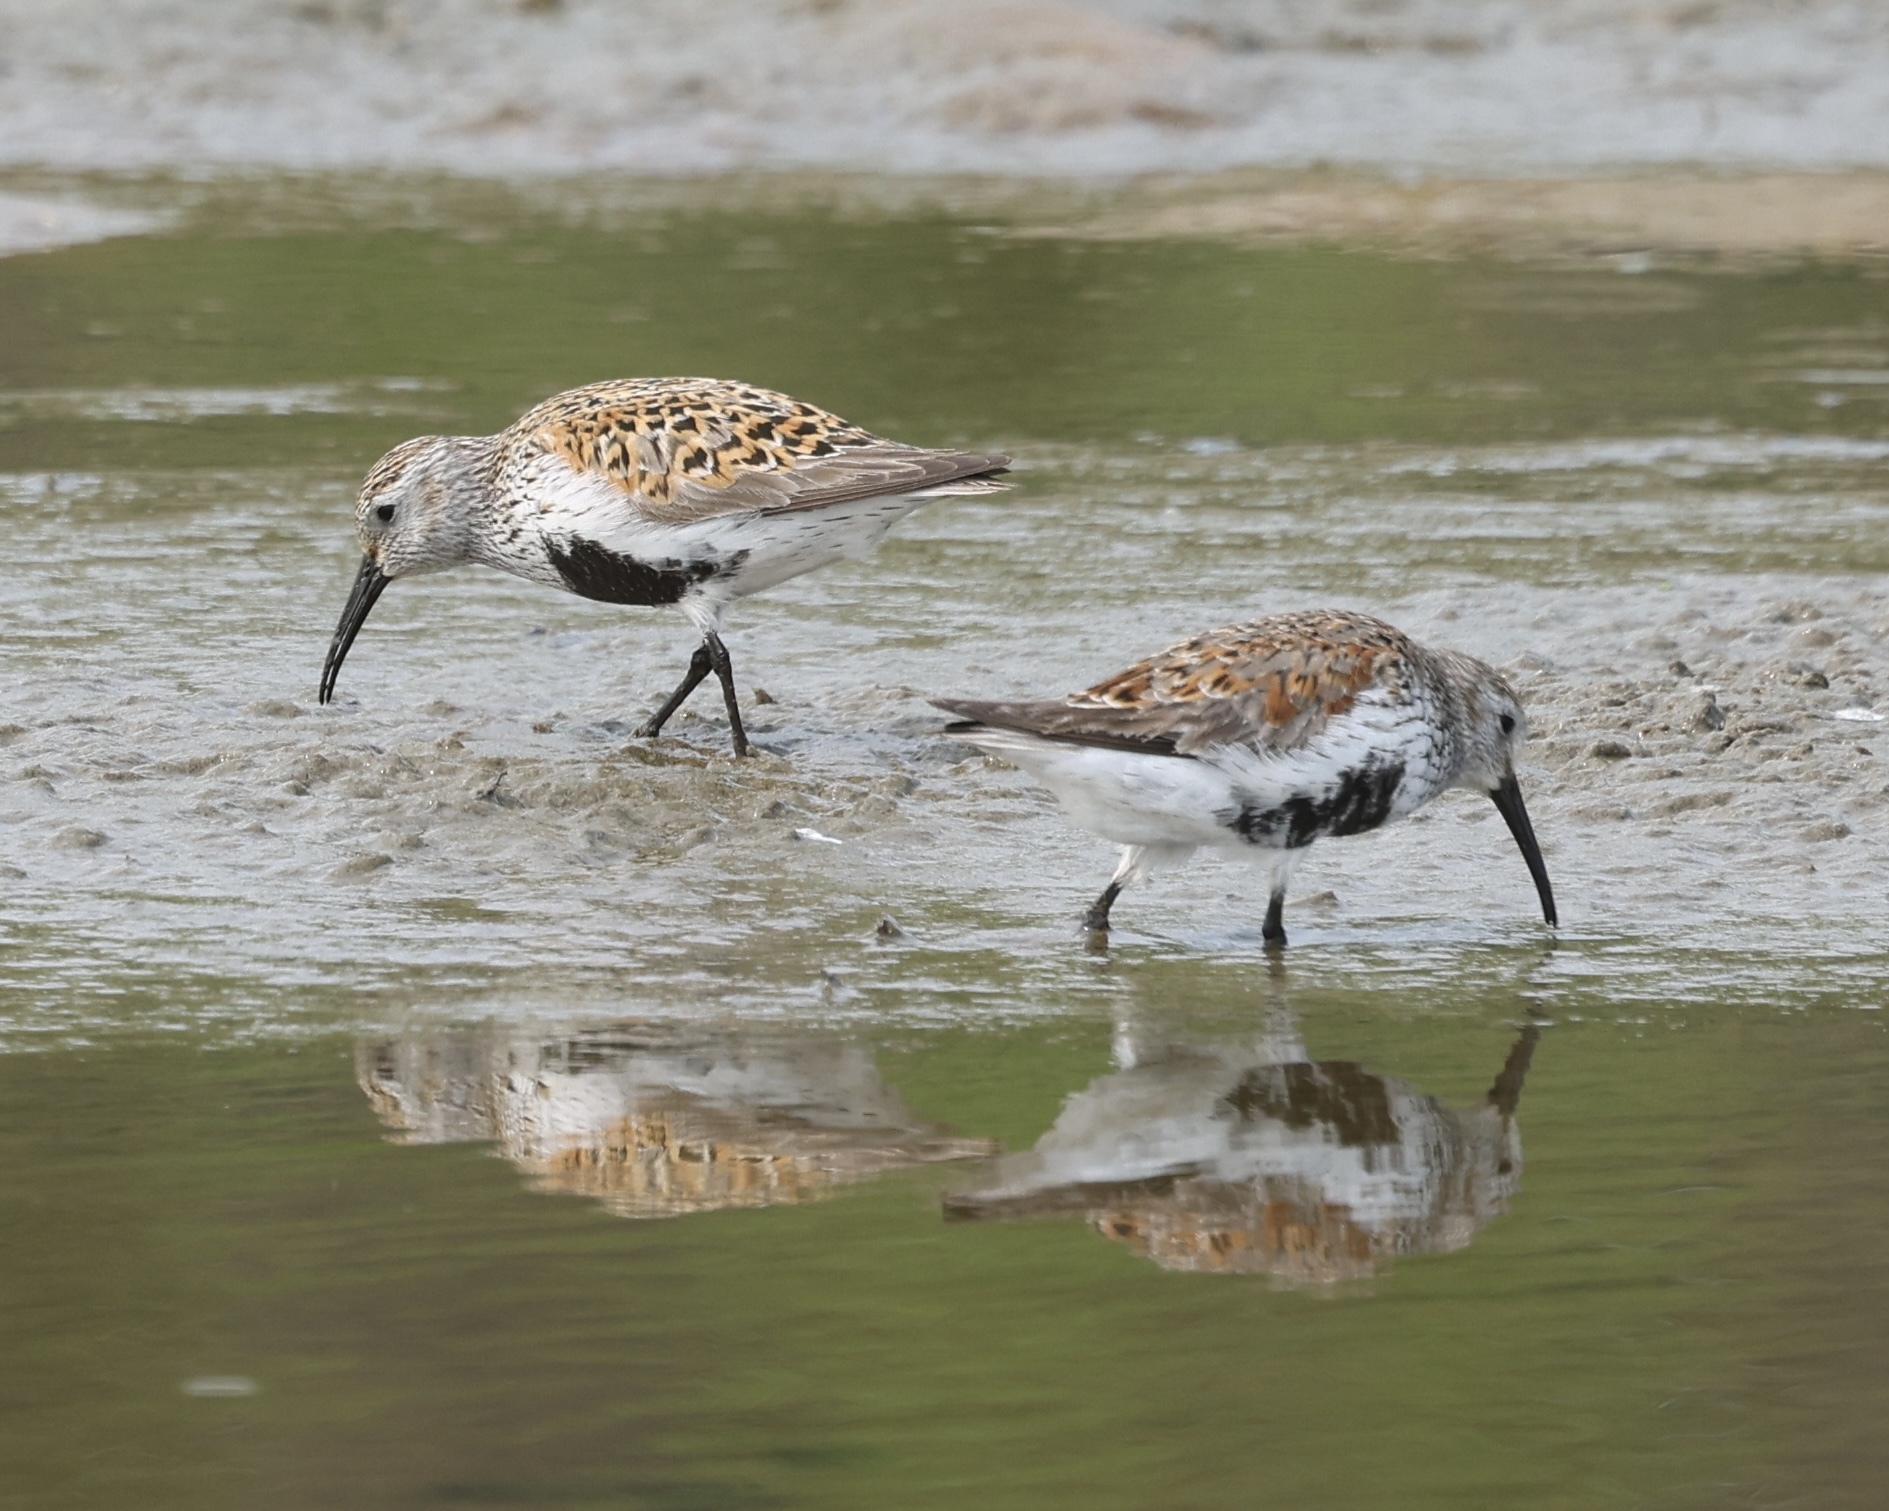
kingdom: Animalia
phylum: Chordata
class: Aves
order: Charadriiformes
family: Scolopacidae
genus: Calidris
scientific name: Calidris alpina
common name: Dunlin
